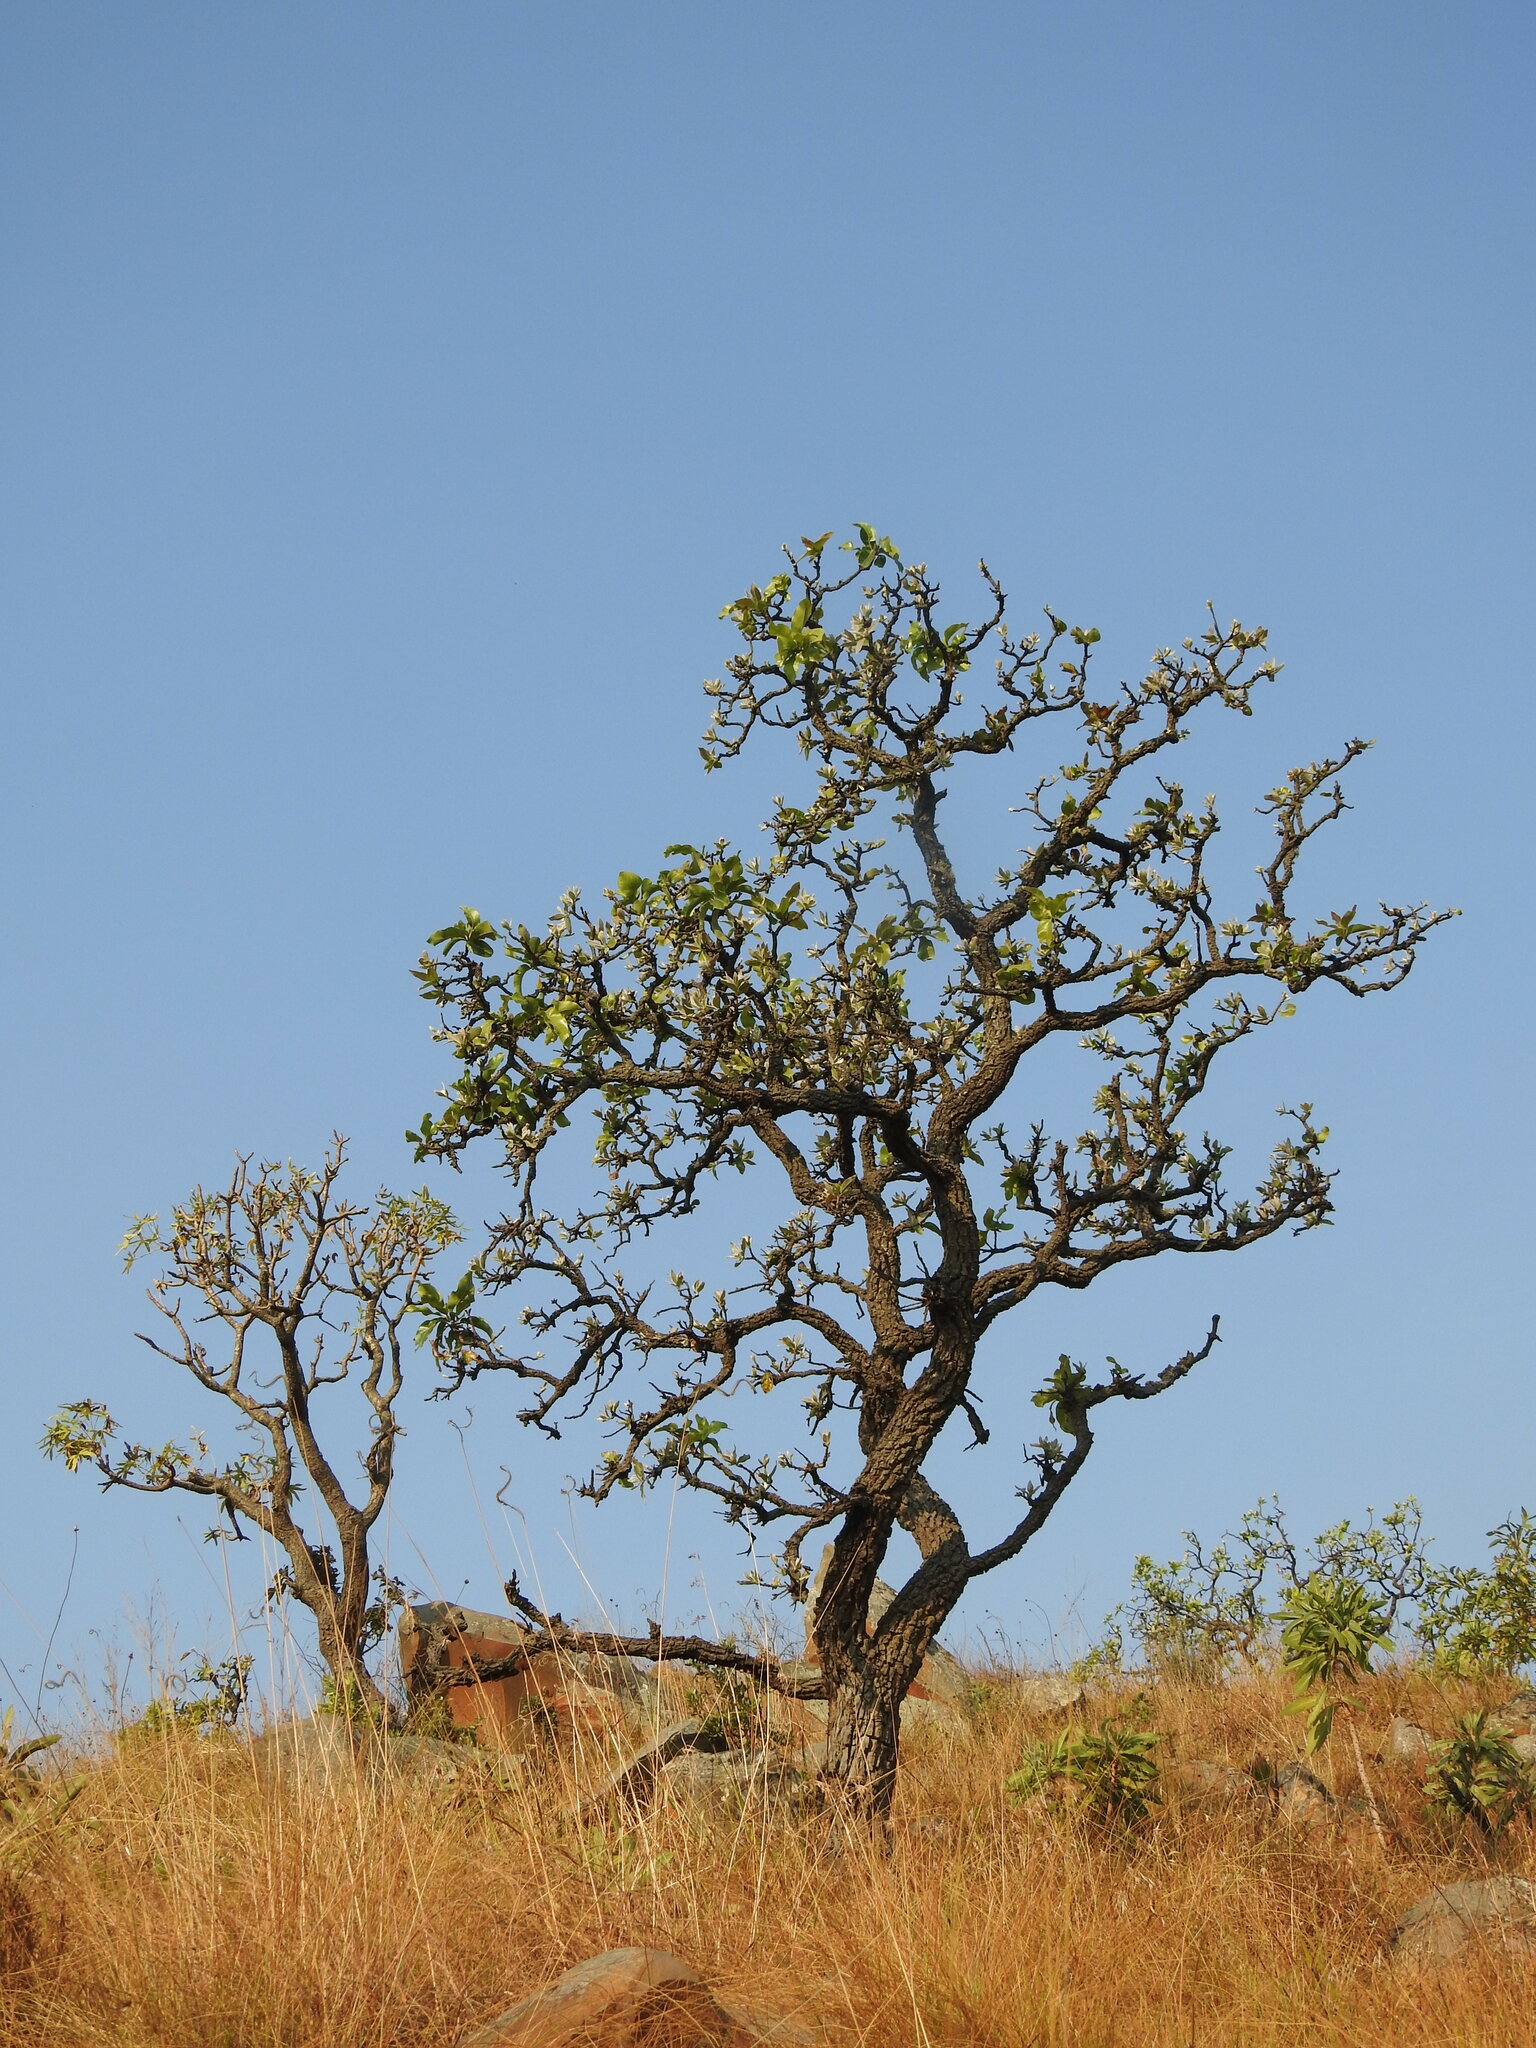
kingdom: Plantae
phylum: Tracheophyta
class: Magnoliopsida
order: Proteales
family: Proteaceae
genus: Faurea
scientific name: Faurea rochetiana
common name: Broad-leaved beech
